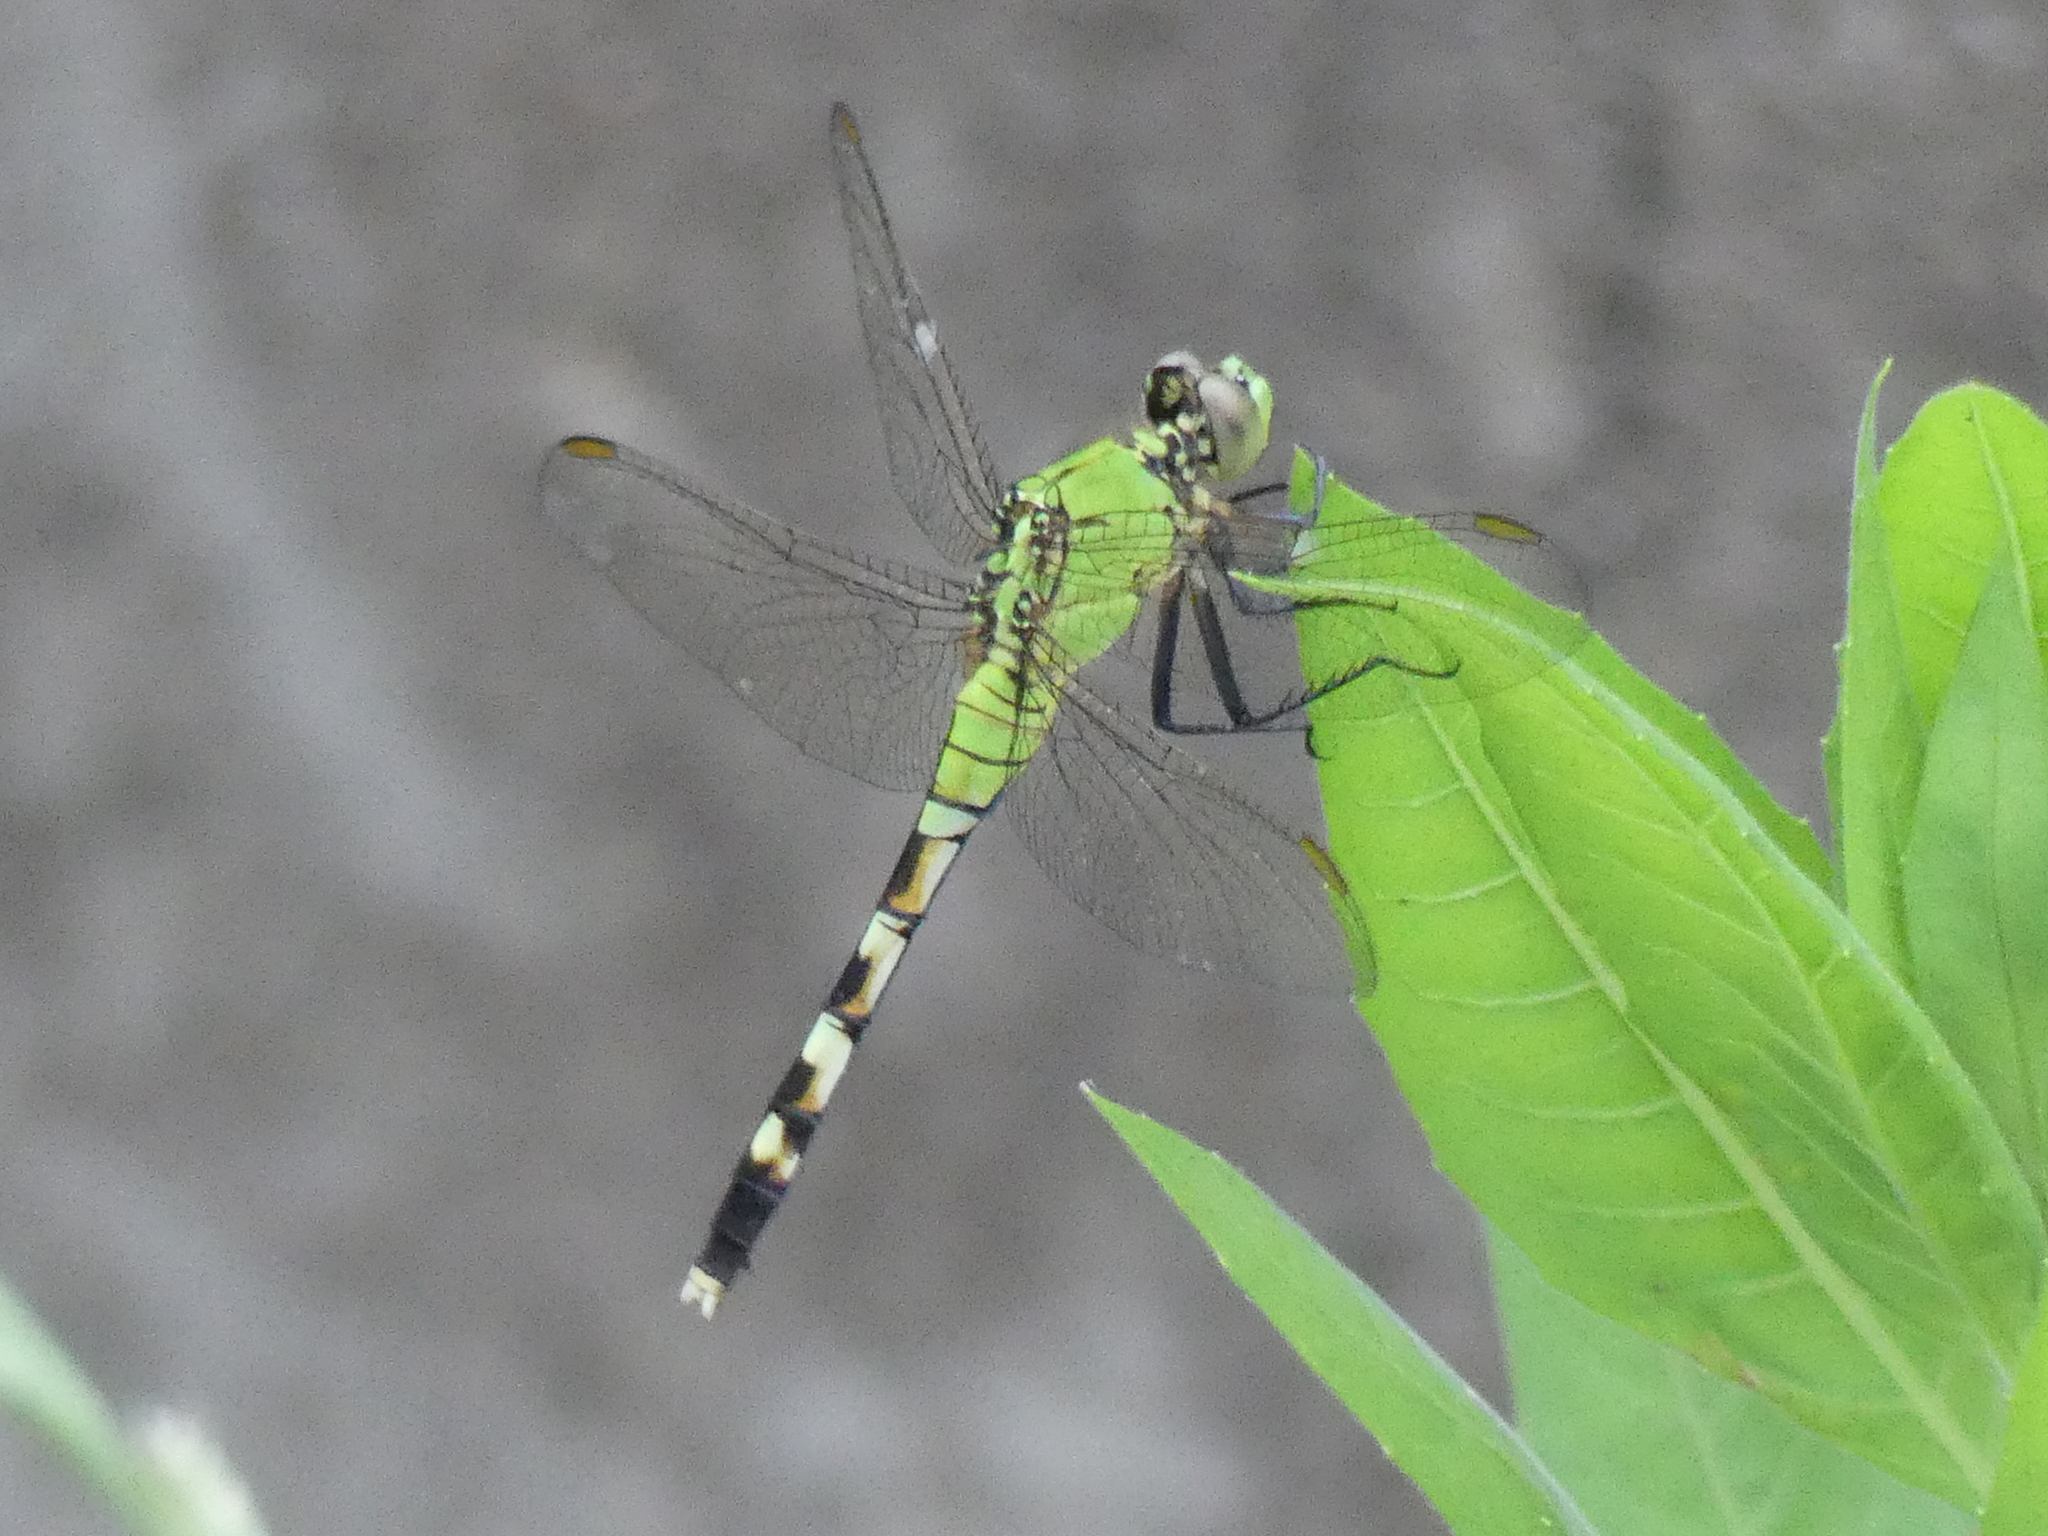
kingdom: Animalia
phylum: Arthropoda
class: Insecta
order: Odonata
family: Libellulidae
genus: Erythemis
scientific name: Erythemis simplicicollis
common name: Eastern pondhawk
